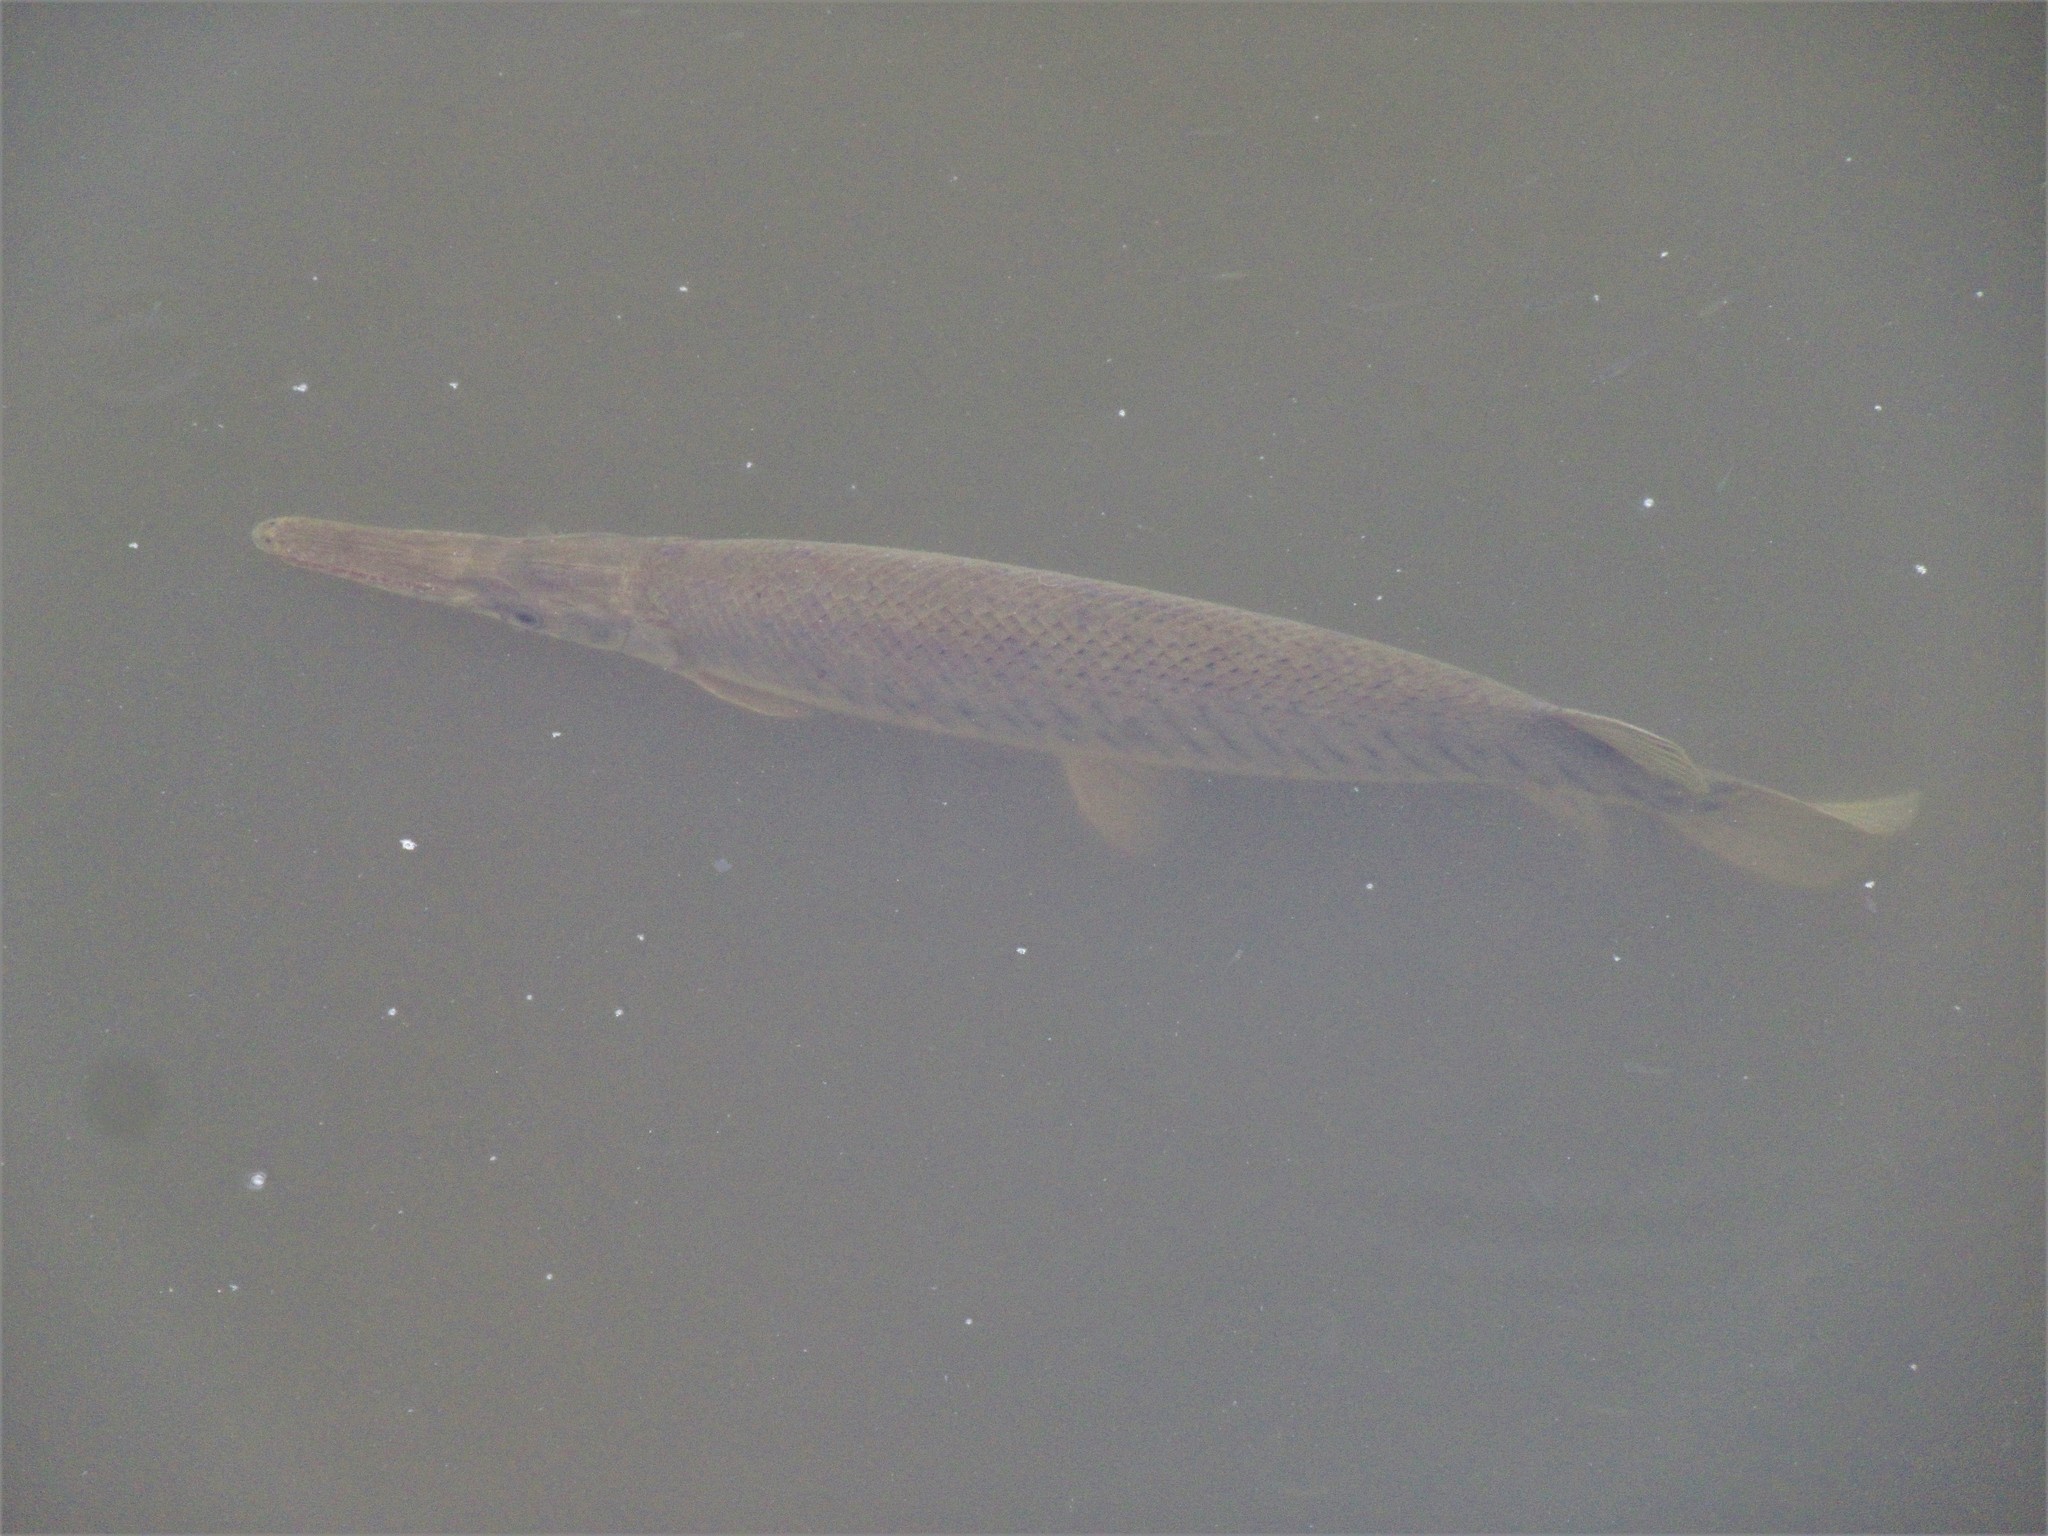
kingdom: Animalia
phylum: Chordata
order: Lepisosteiformes
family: Lepisosteidae
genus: Lepisosteus
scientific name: Lepisosteus platyrhincus
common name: Florida gar
